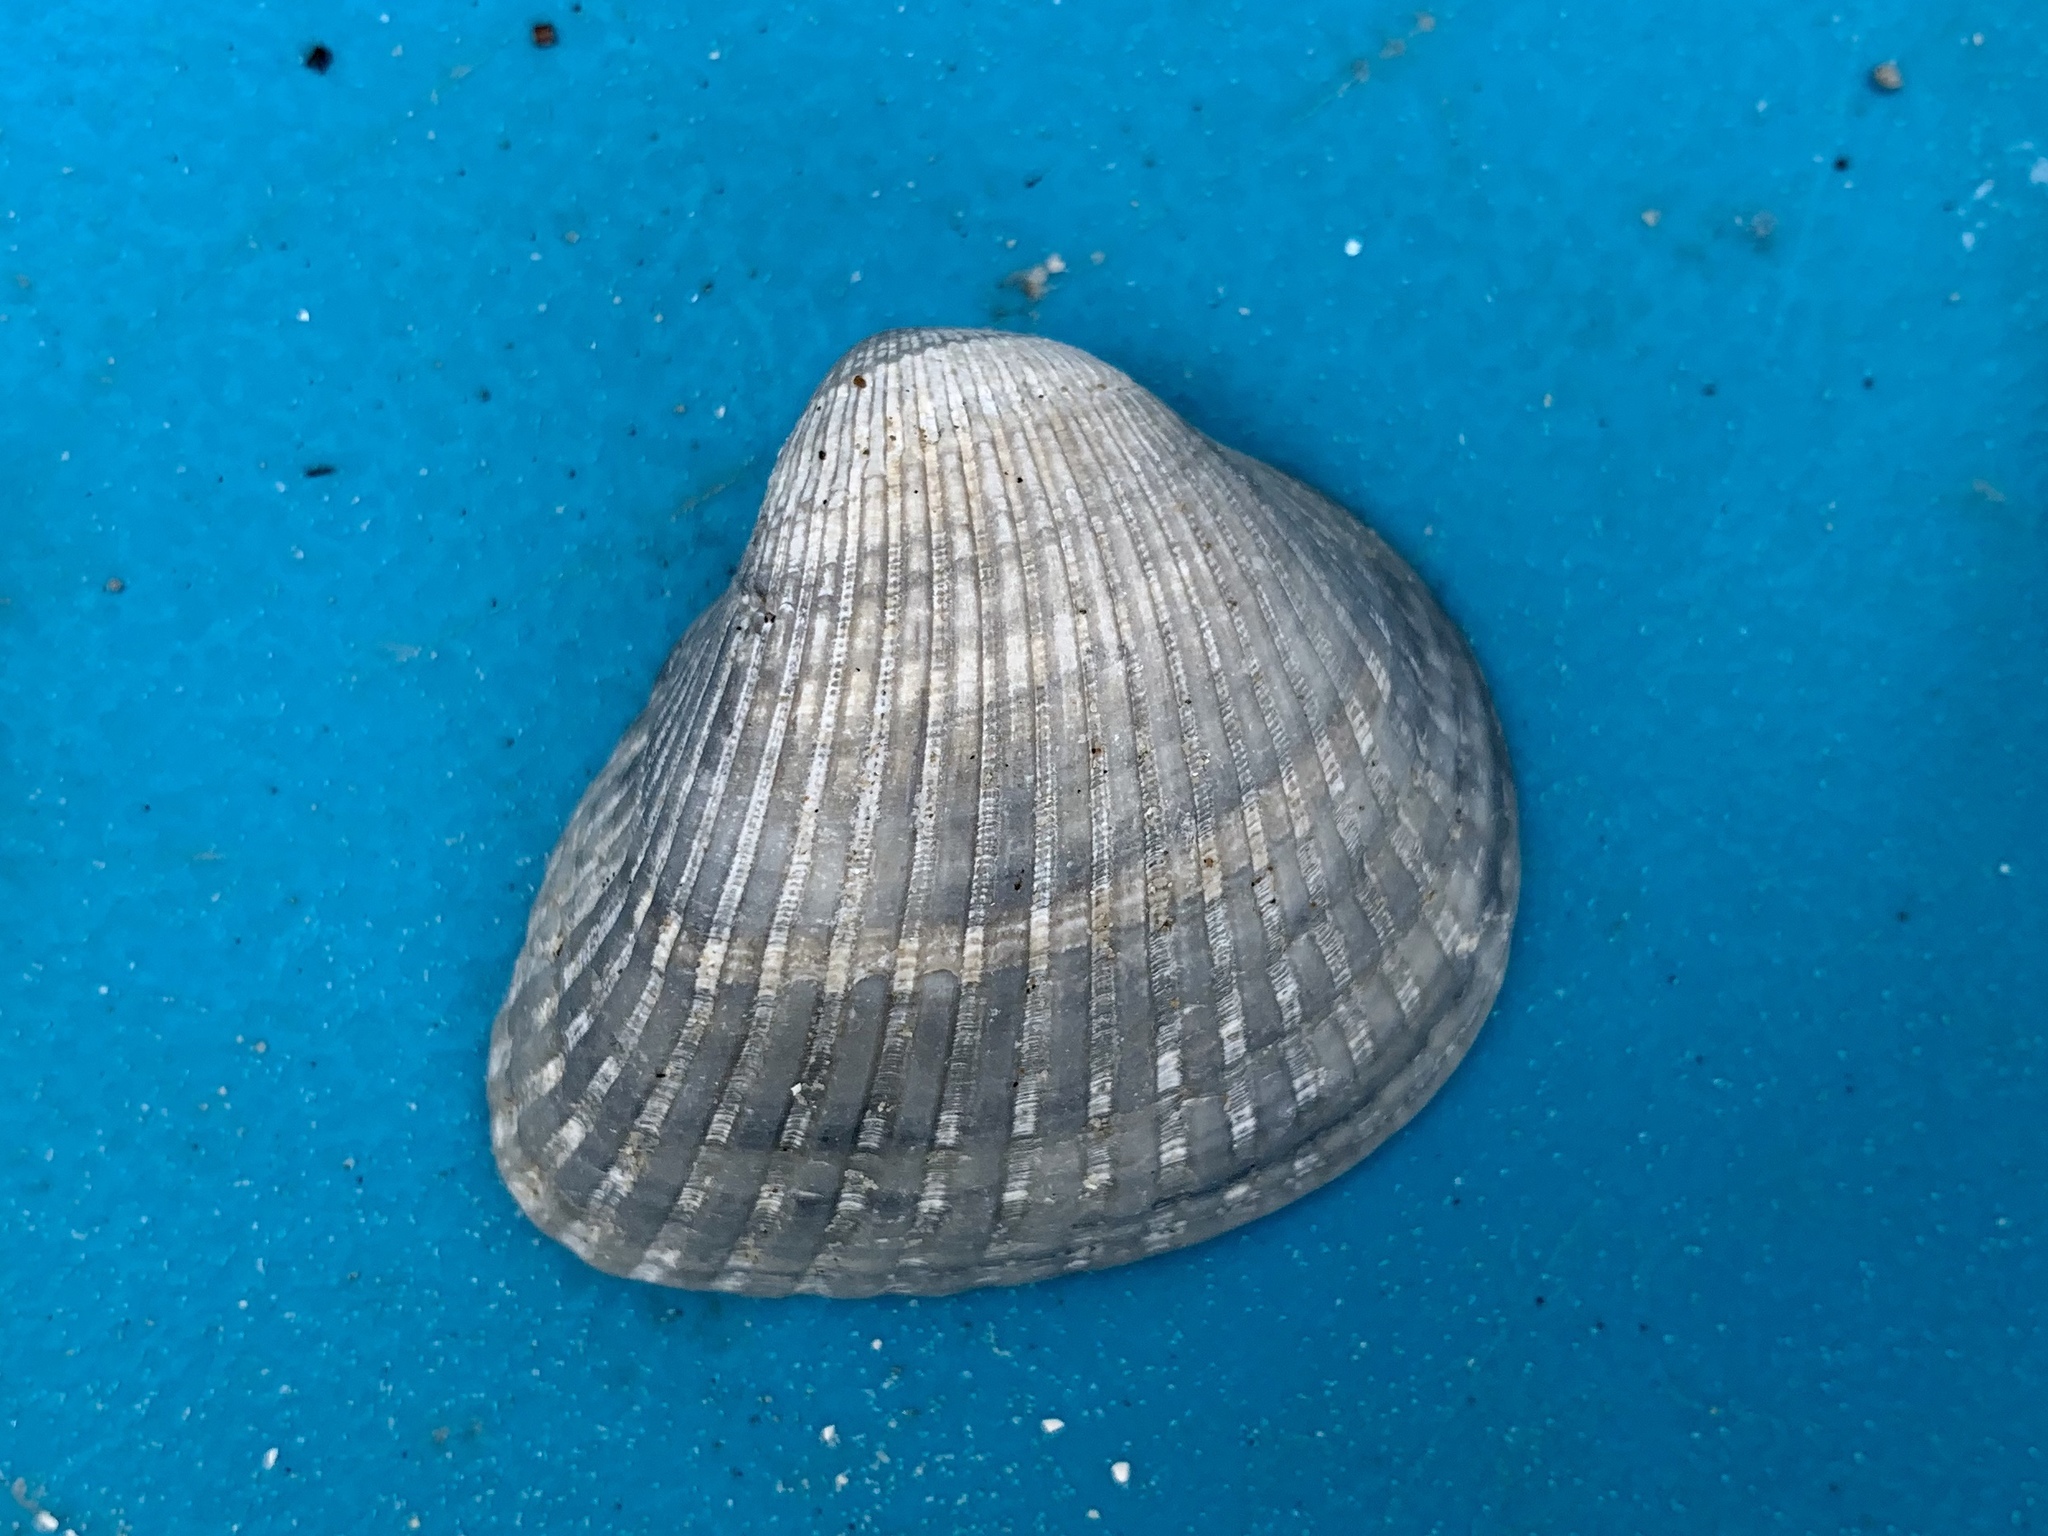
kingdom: Animalia
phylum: Mollusca
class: Bivalvia
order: Arcida
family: Noetiidae
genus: Noetia
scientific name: Noetia ponderosa
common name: Ponderous ark
